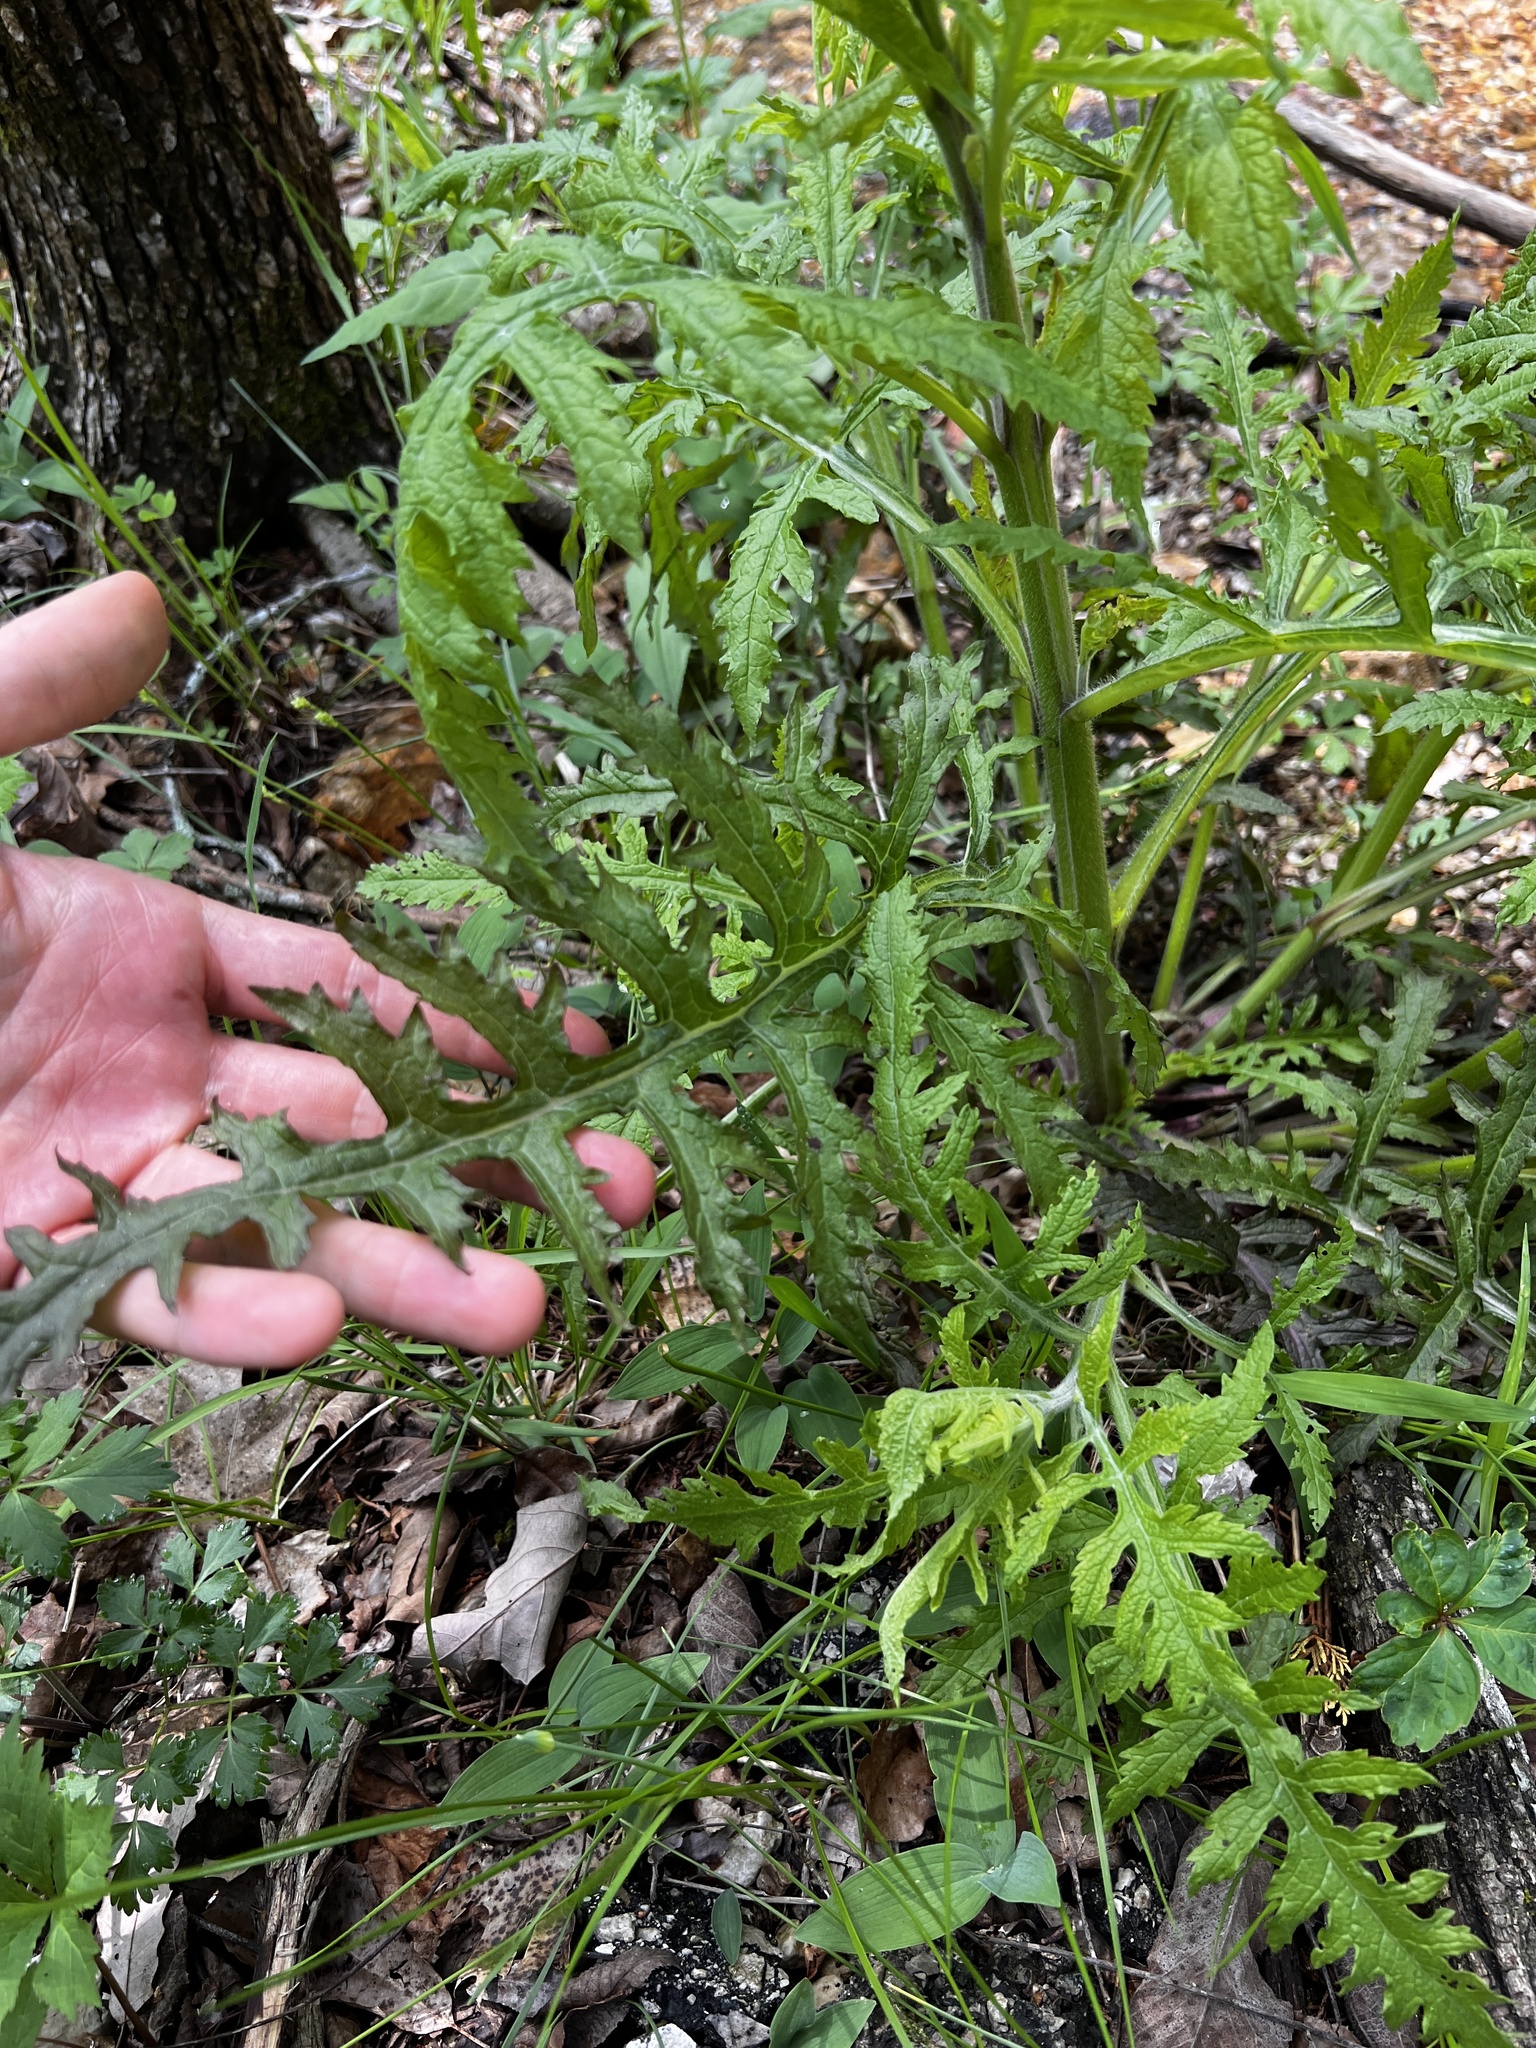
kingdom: Plantae
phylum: Tracheophyta
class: Magnoliopsida
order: Lamiales
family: Orobanchaceae
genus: Dasistoma
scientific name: Dasistoma macrophyllum
